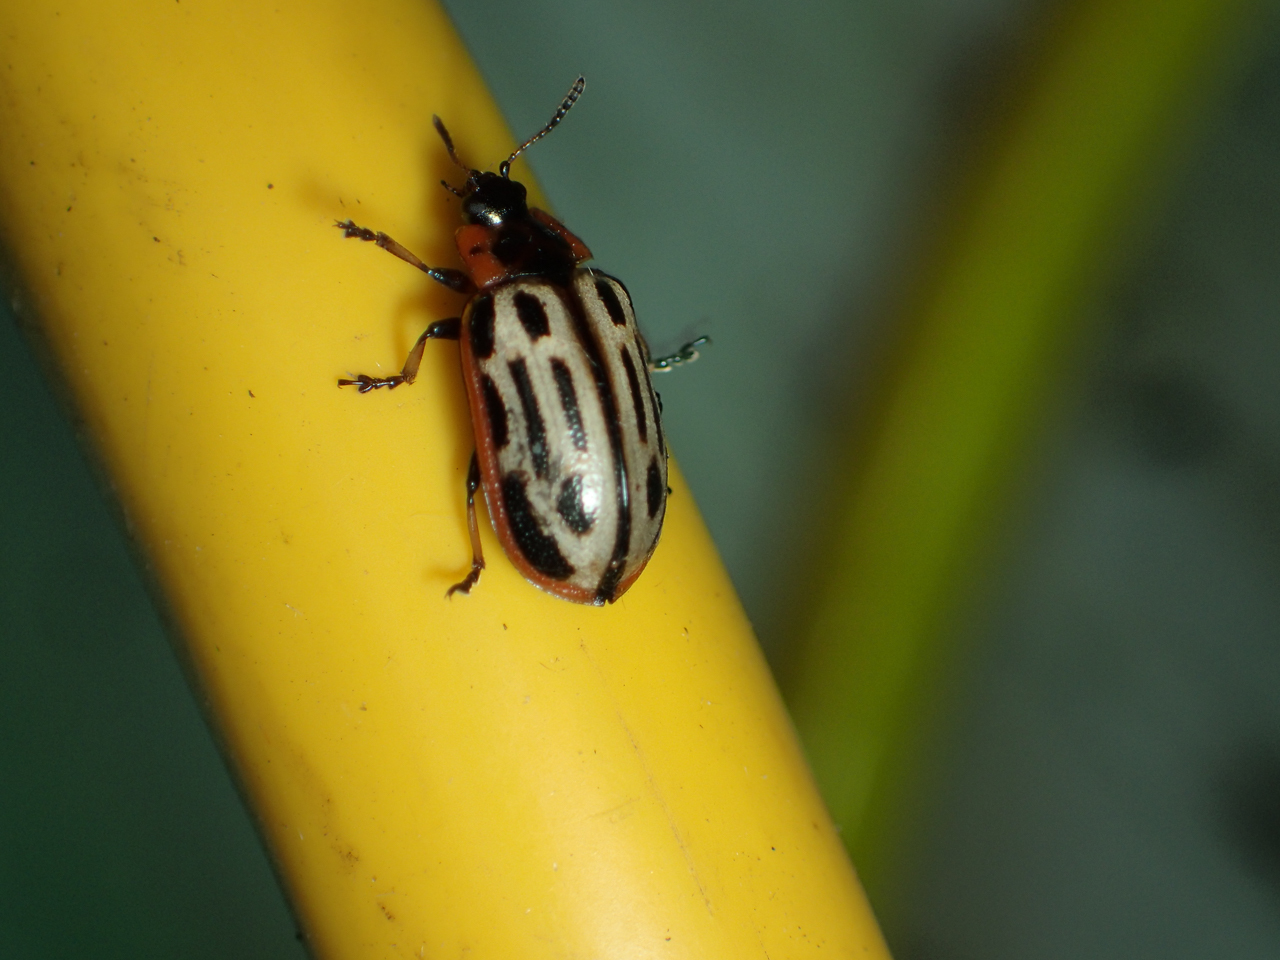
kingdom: Animalia
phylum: Arthropoda
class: Insecta
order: Coleoptera
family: Chrysomelidae
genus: Aethiopocassis
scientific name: Aethiopocassis scripta
